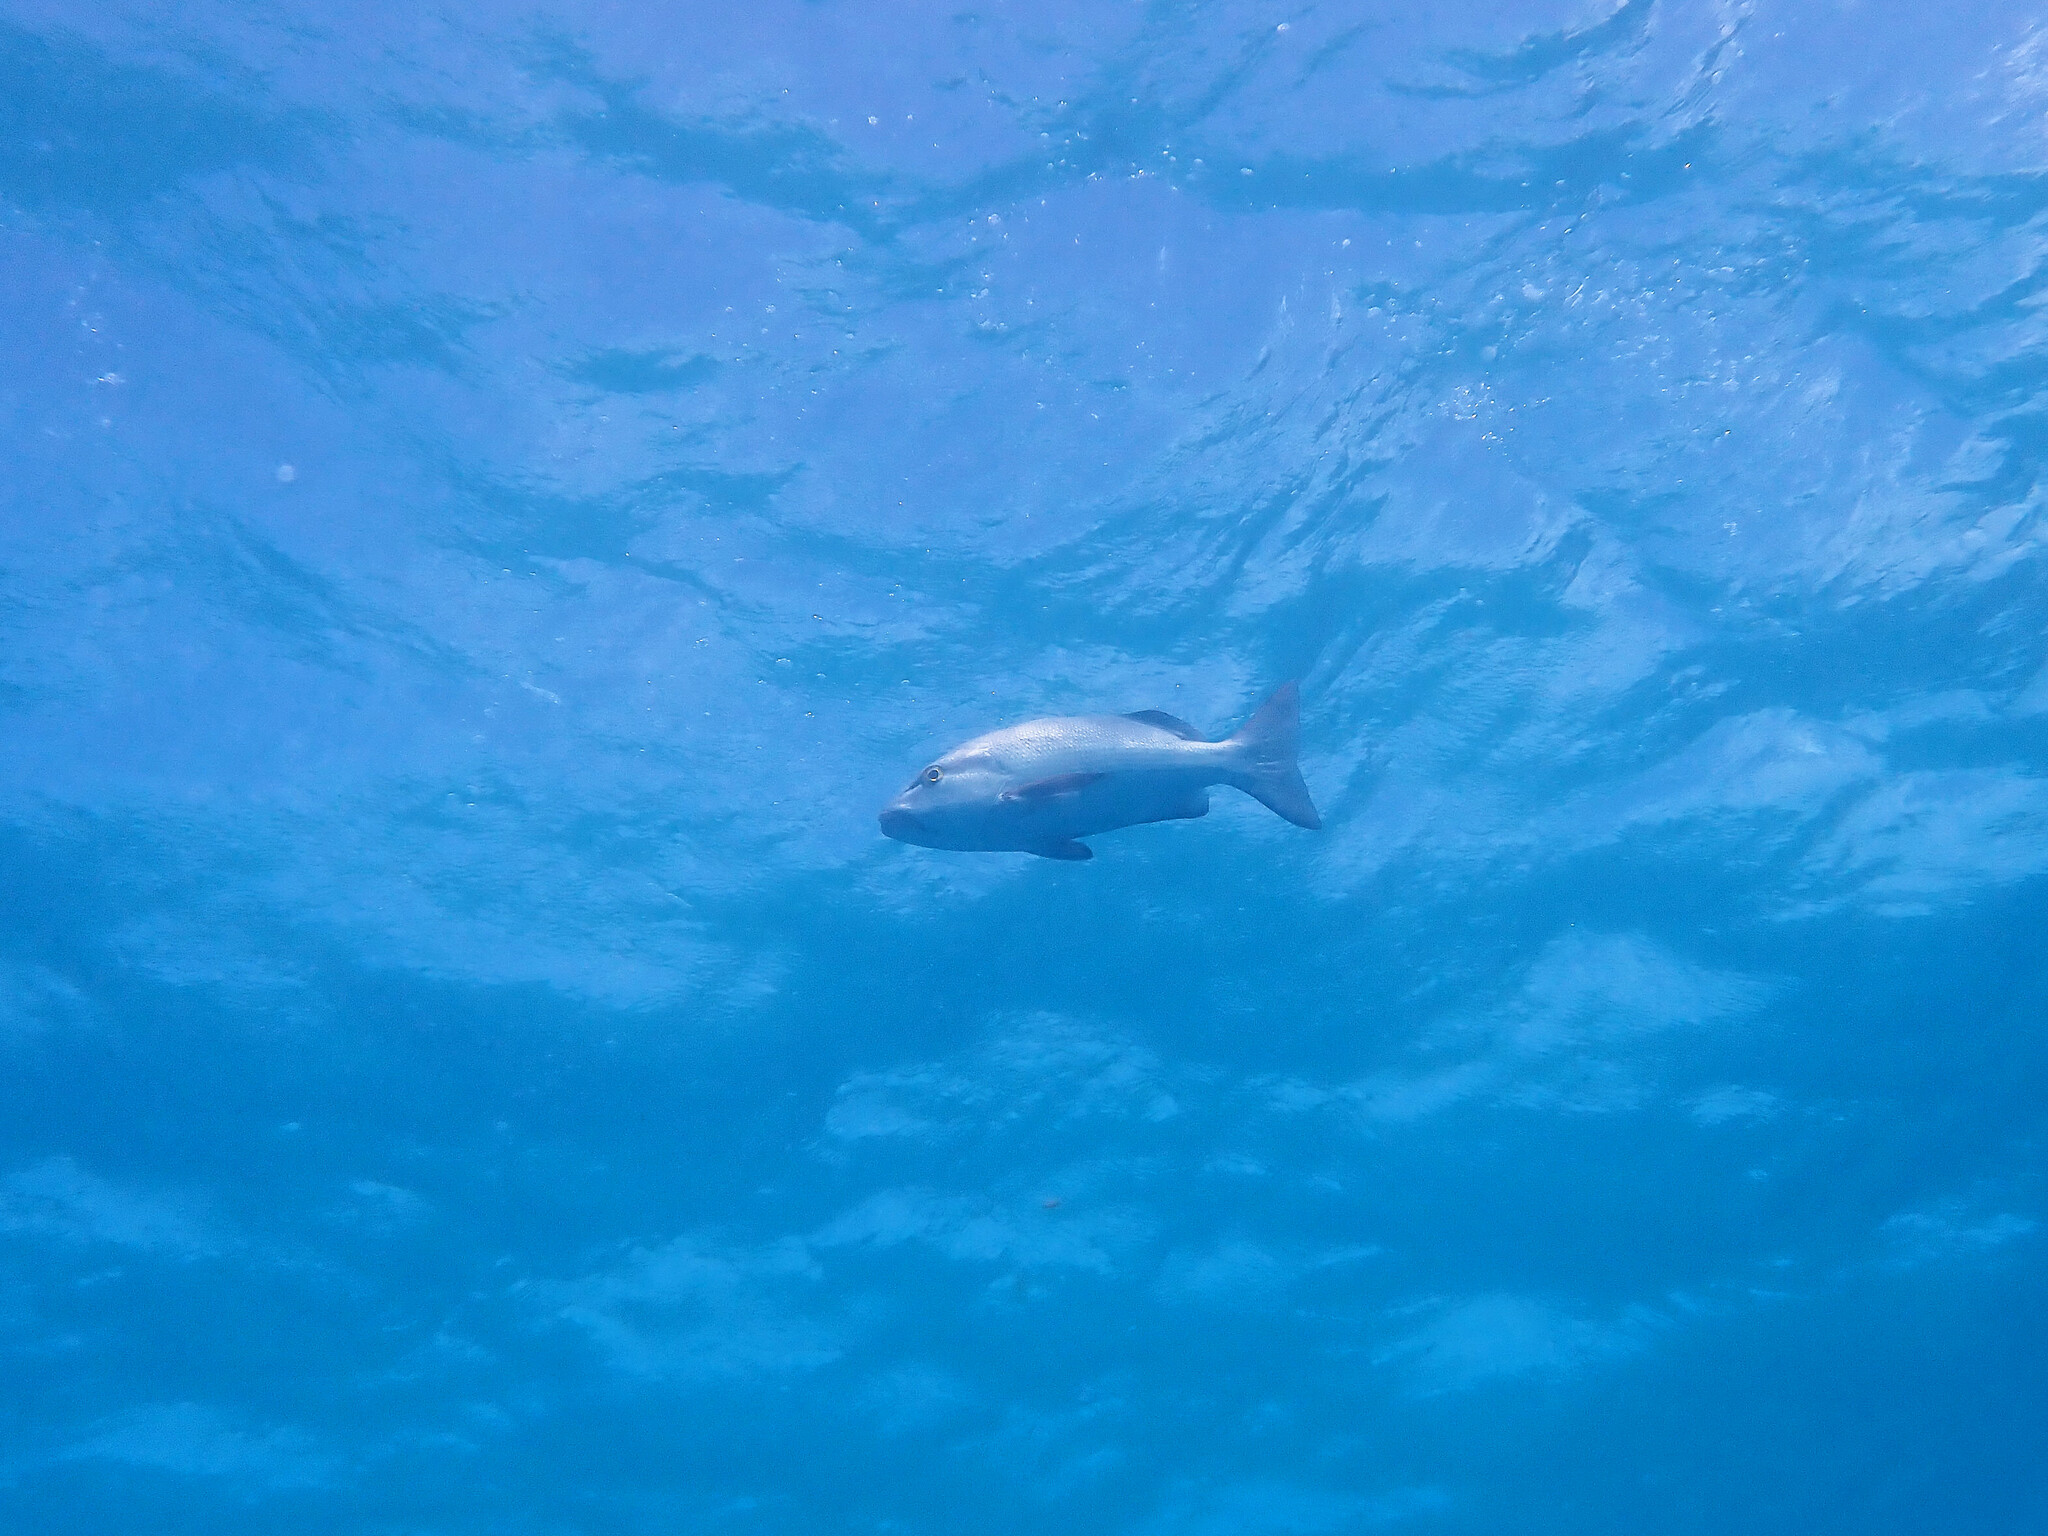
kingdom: Animalia
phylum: Chordata
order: Perciformes
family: Lutjanidae
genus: Lutjanus
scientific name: Lutjanus bohar
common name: Red bass
